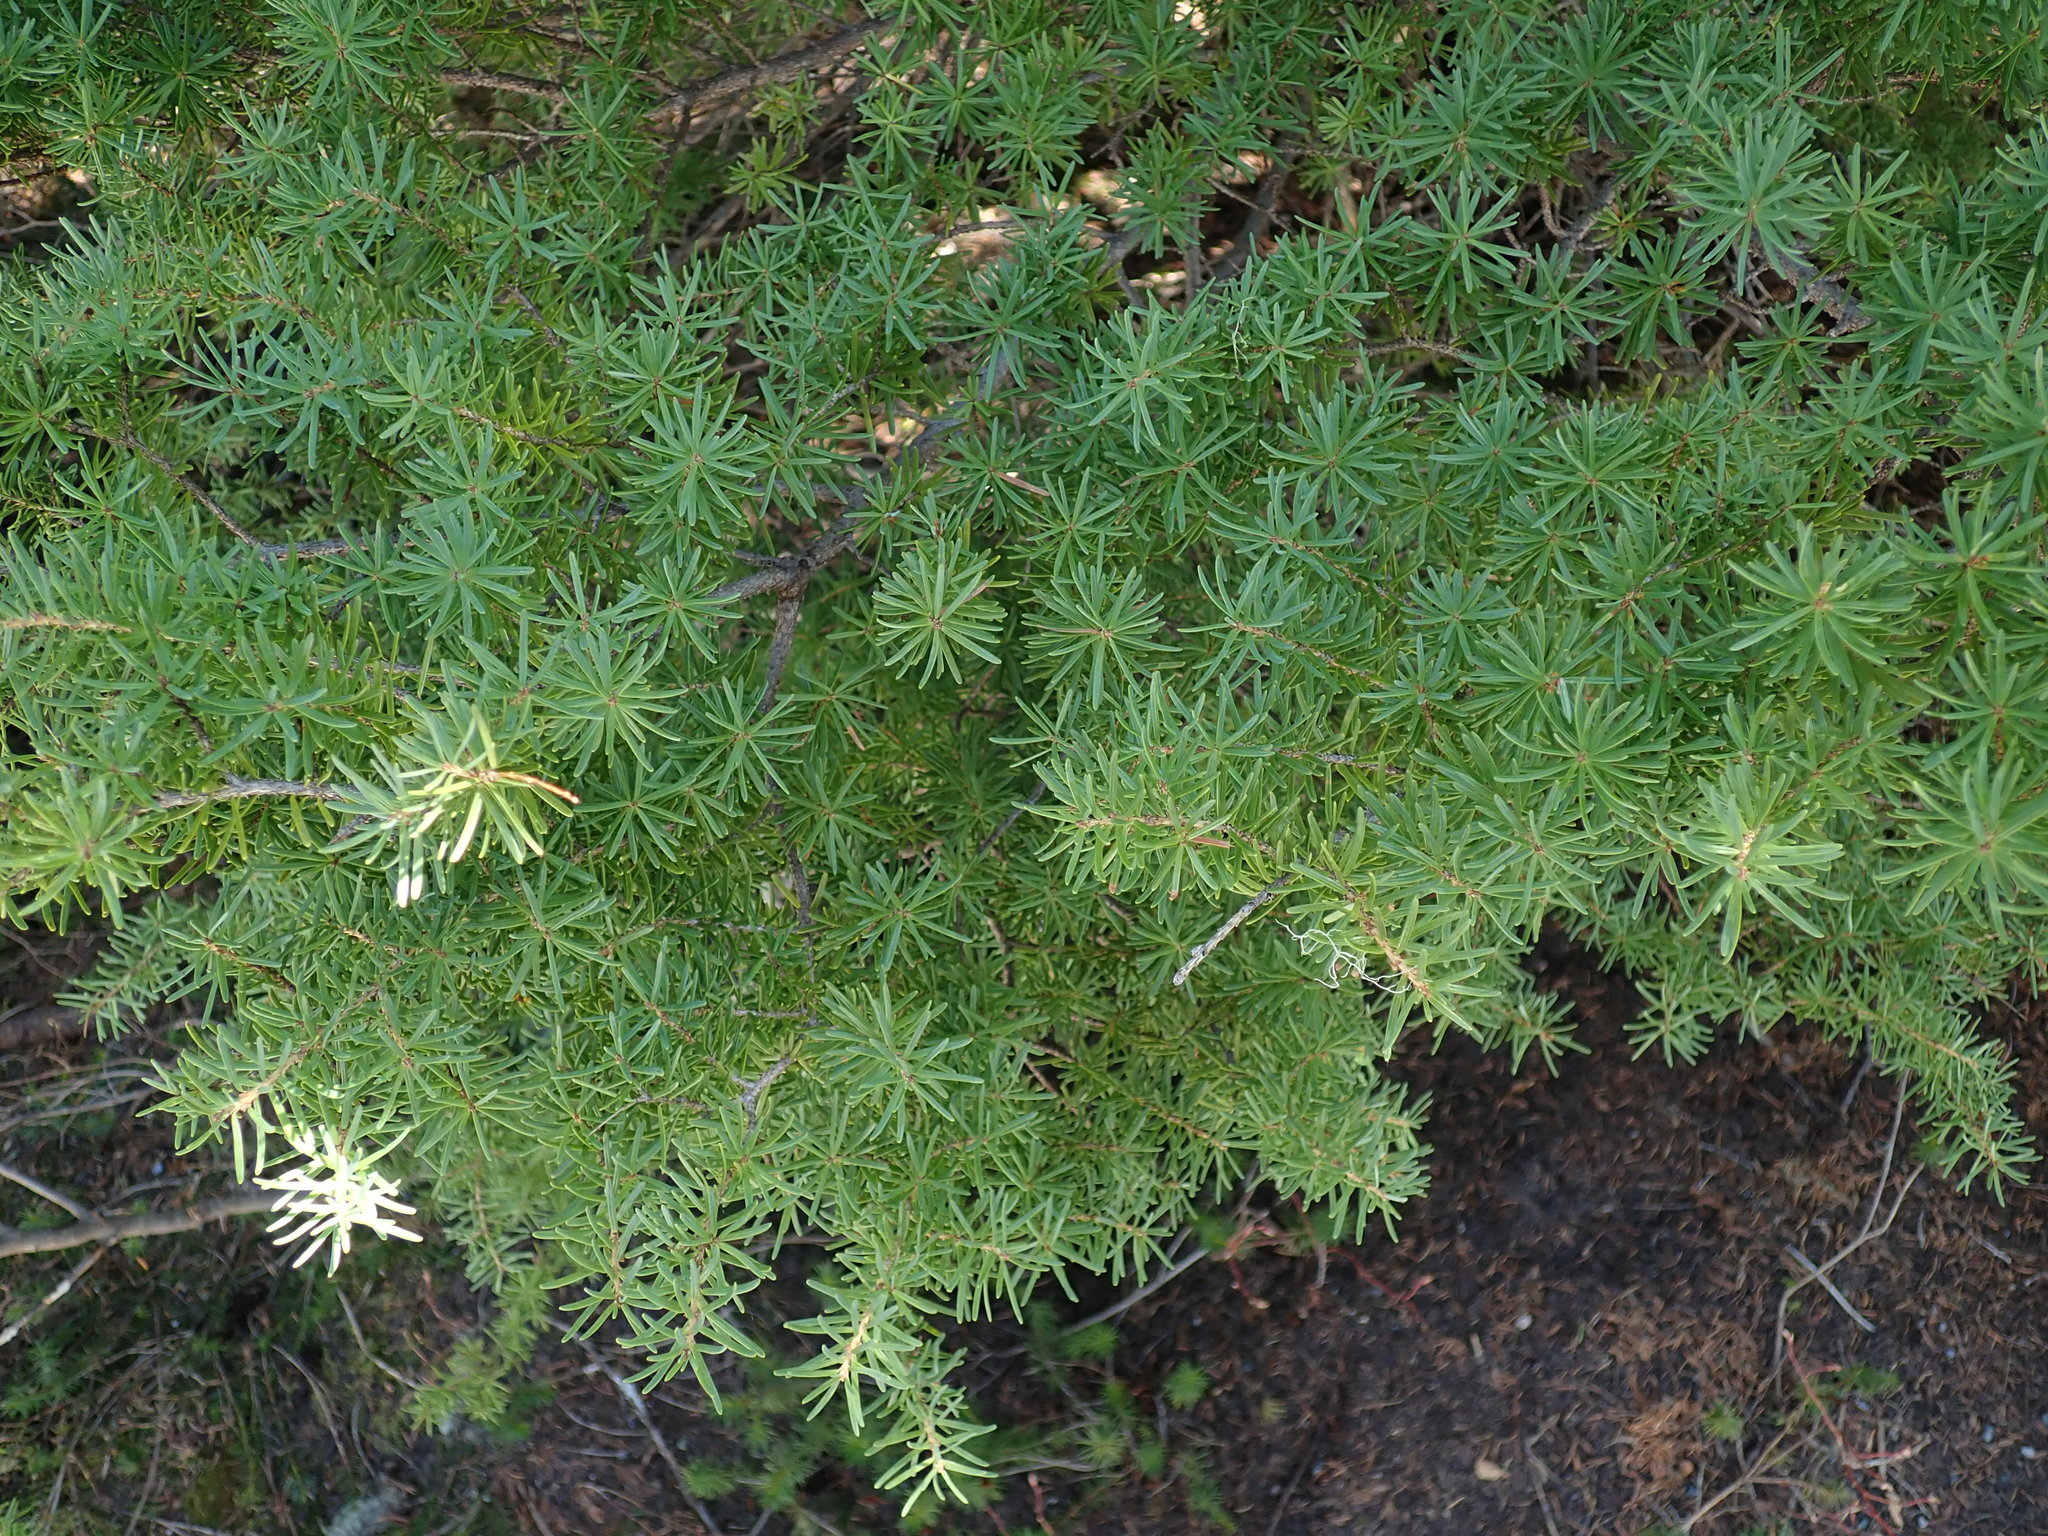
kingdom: Plantae
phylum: Tracheophyta
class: Pinopsida
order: Pinales
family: Pinaceae
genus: Tsuga
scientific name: Tsuga mertensiana
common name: Mountain hemlock
